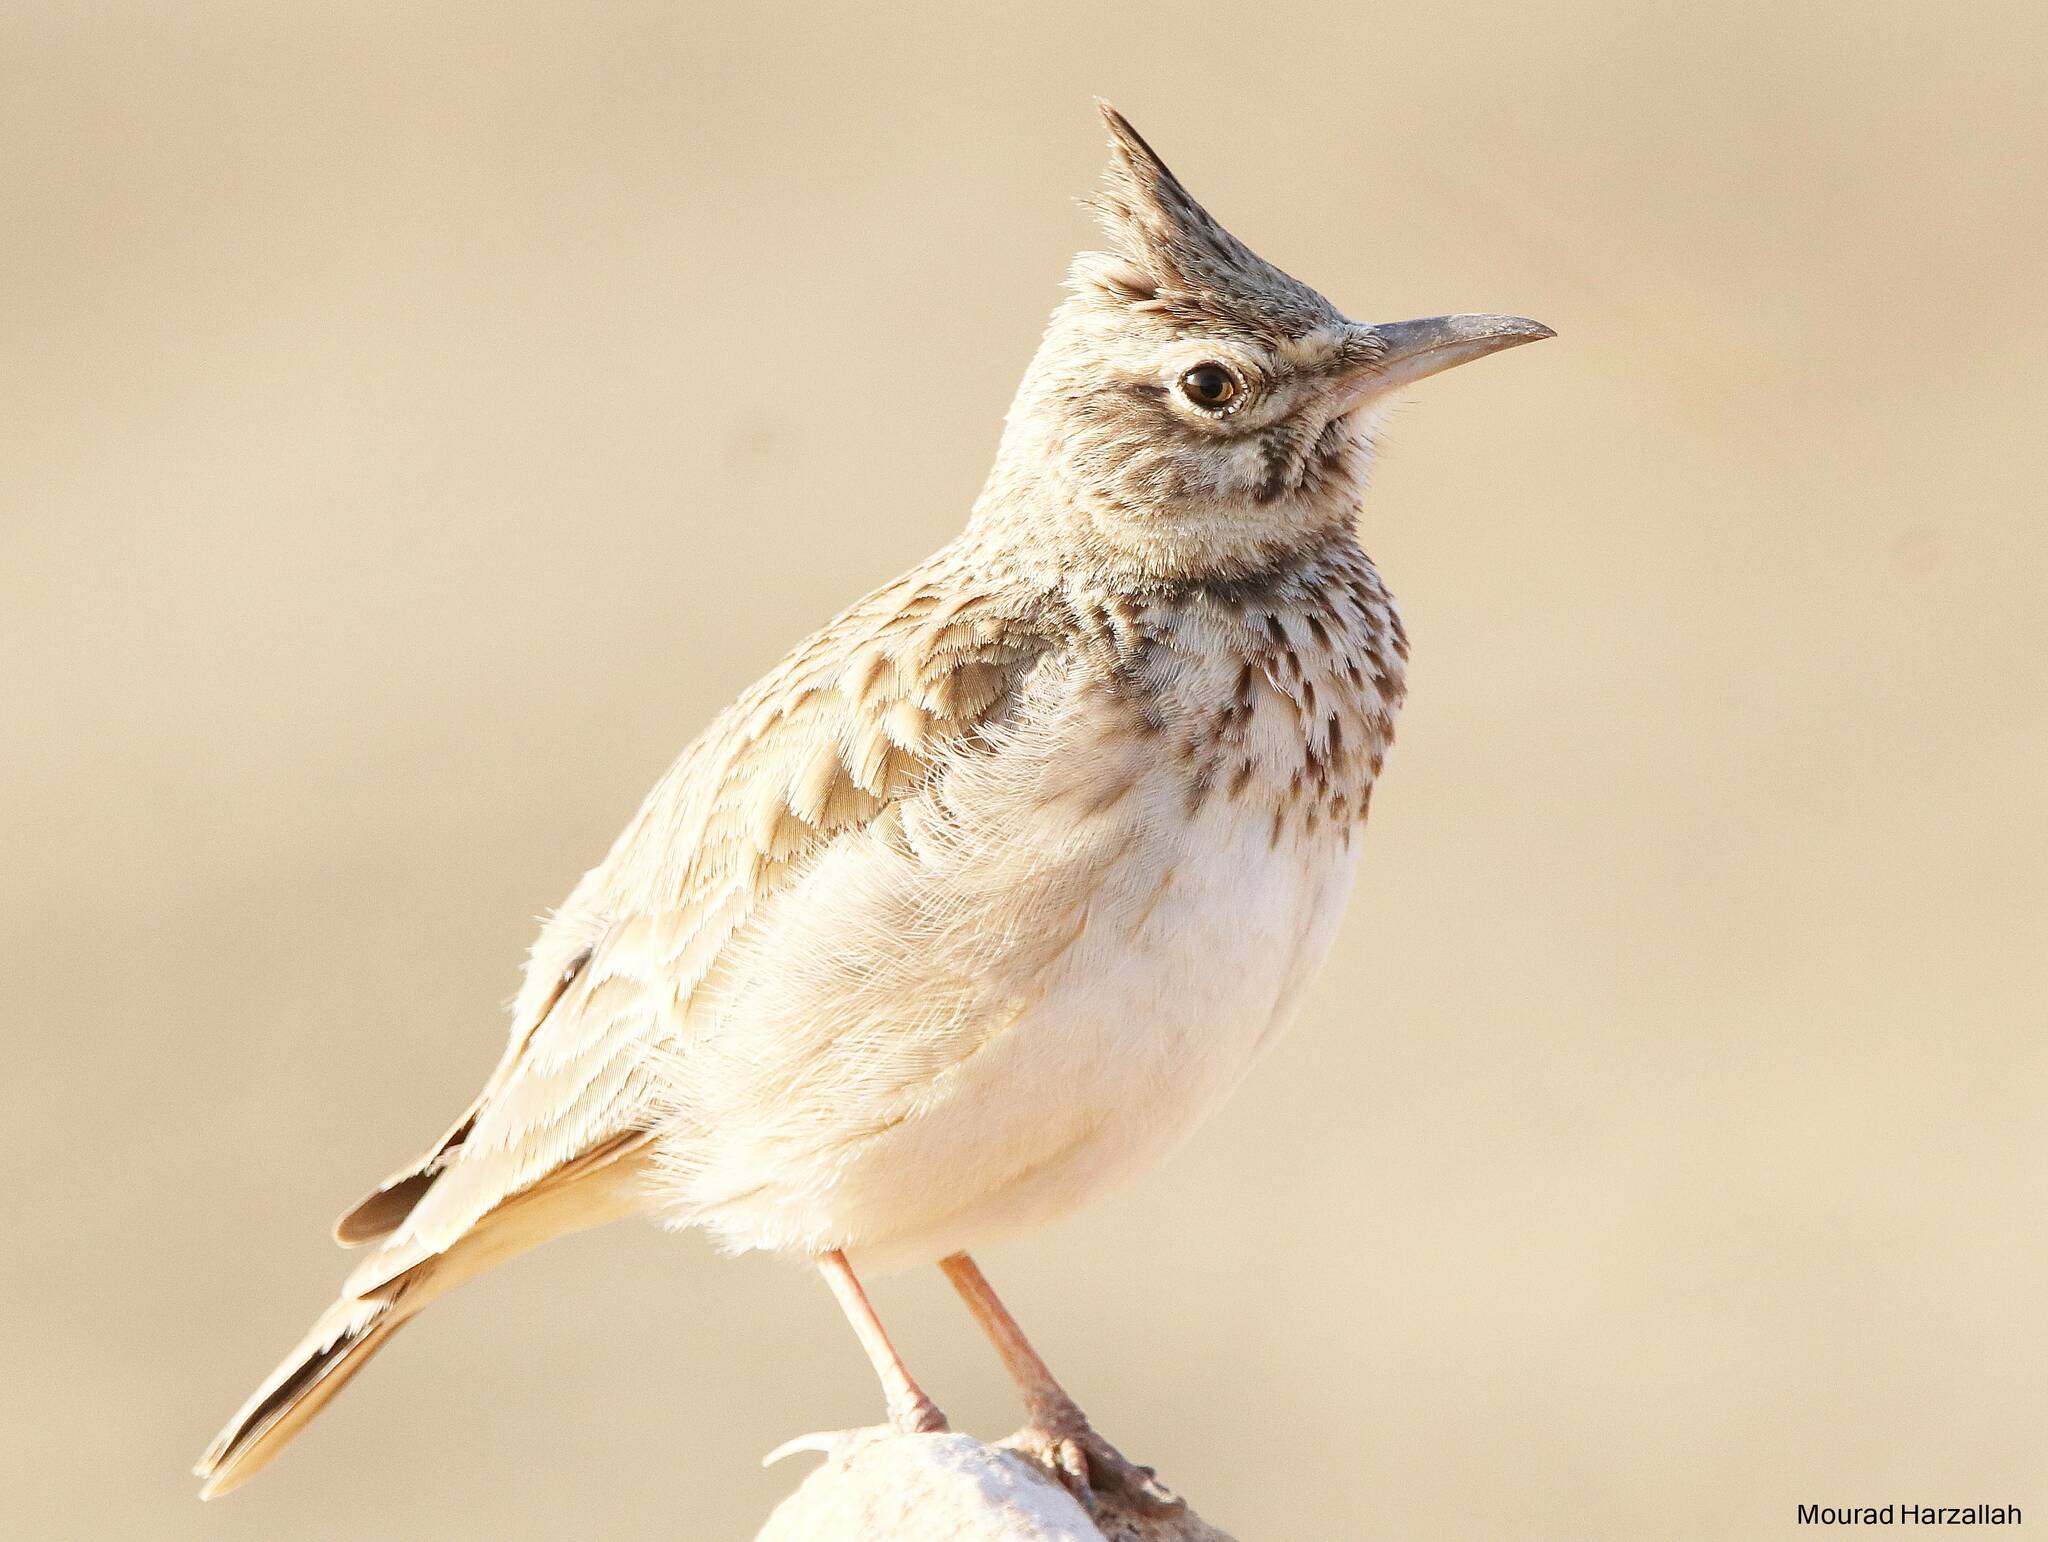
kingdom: Animalia
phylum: Chordata
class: Aves
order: Passeriformes
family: Alaudidae
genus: Galerida
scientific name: Galerida cristata
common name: Crested lark
